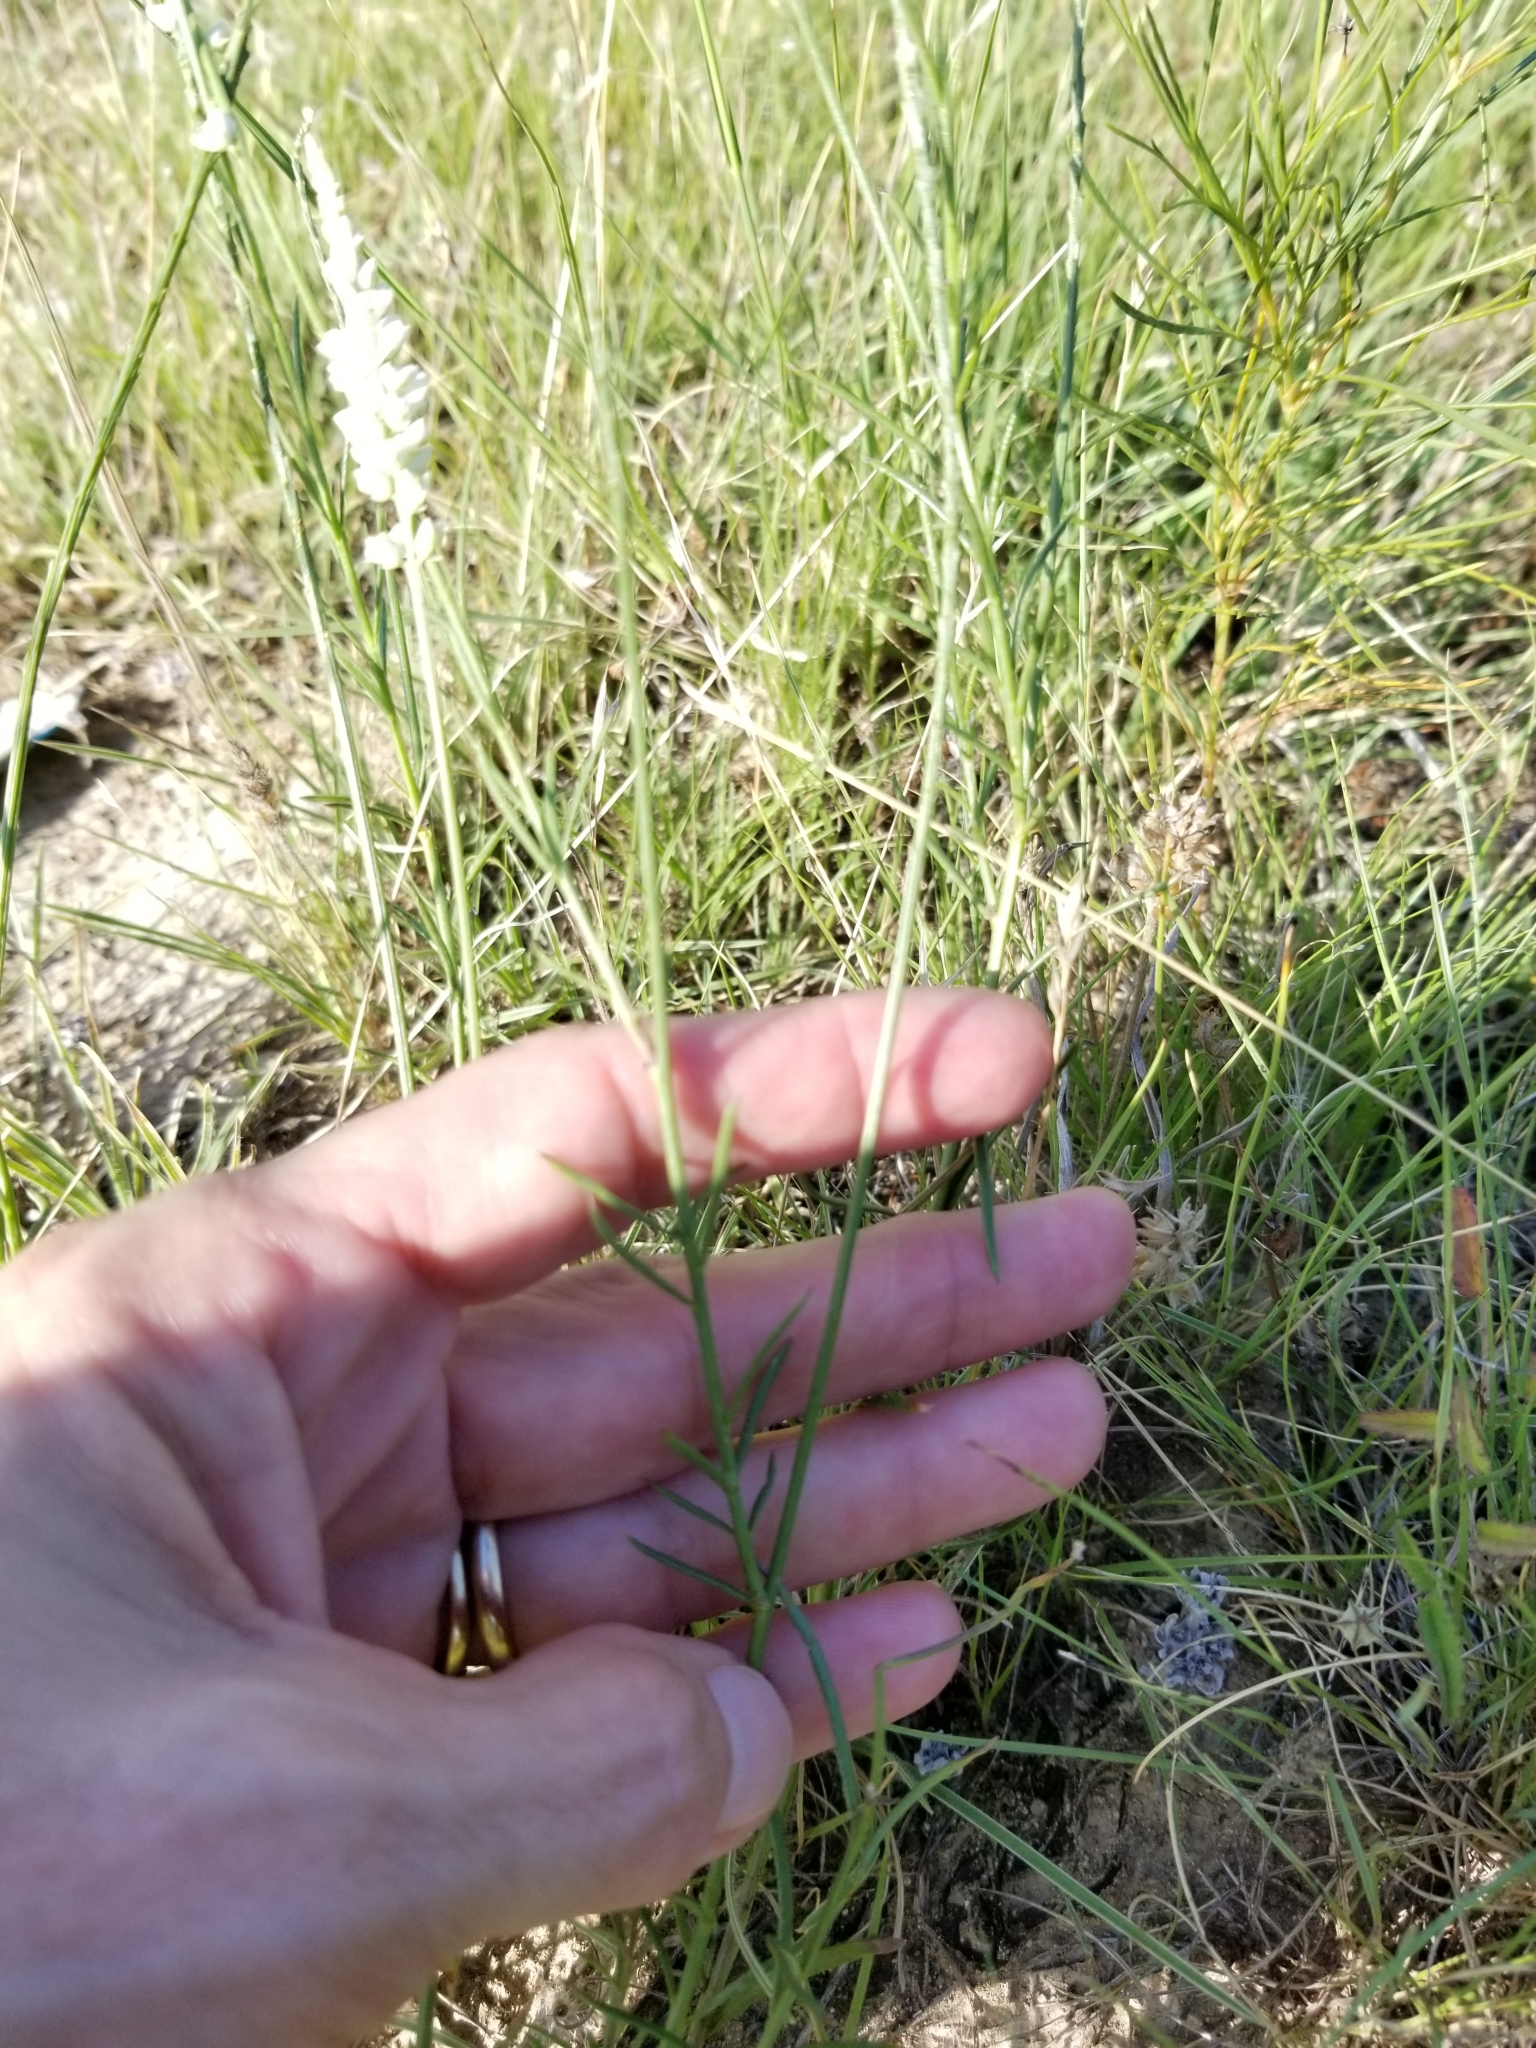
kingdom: Plantae
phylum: Tracheophyta
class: Magnoliopsida
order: Fabales
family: Polygalaceae
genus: Polygala
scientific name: Polygala alba
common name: White milkwort
